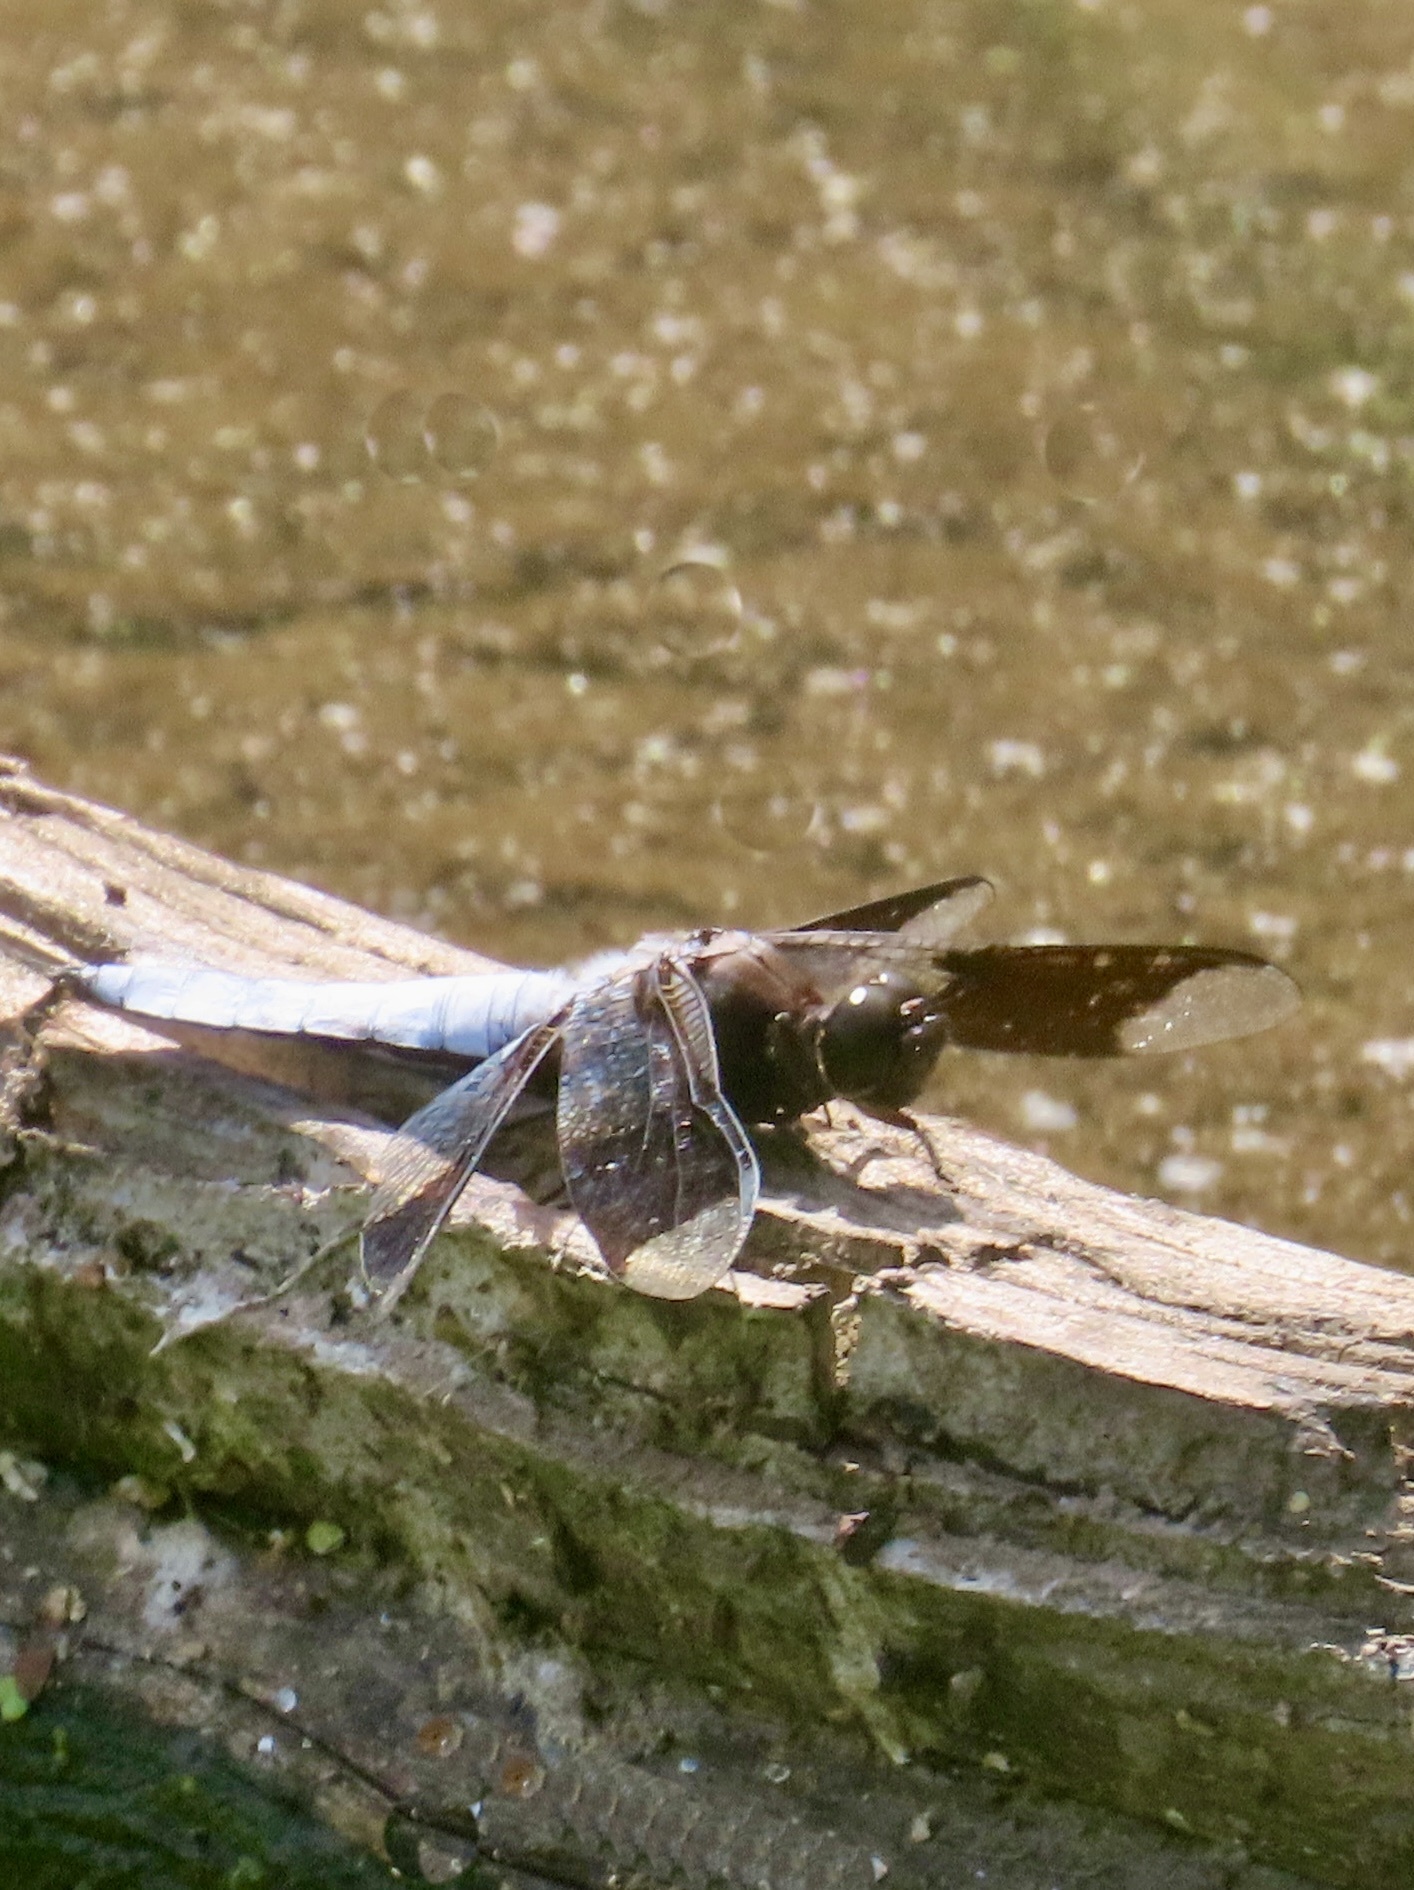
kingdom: Animalia
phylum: Arthropoda
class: Insecta
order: Odonata
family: Libellulidae
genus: Plathemis
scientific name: Plathemis lydia
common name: Common whitetail
